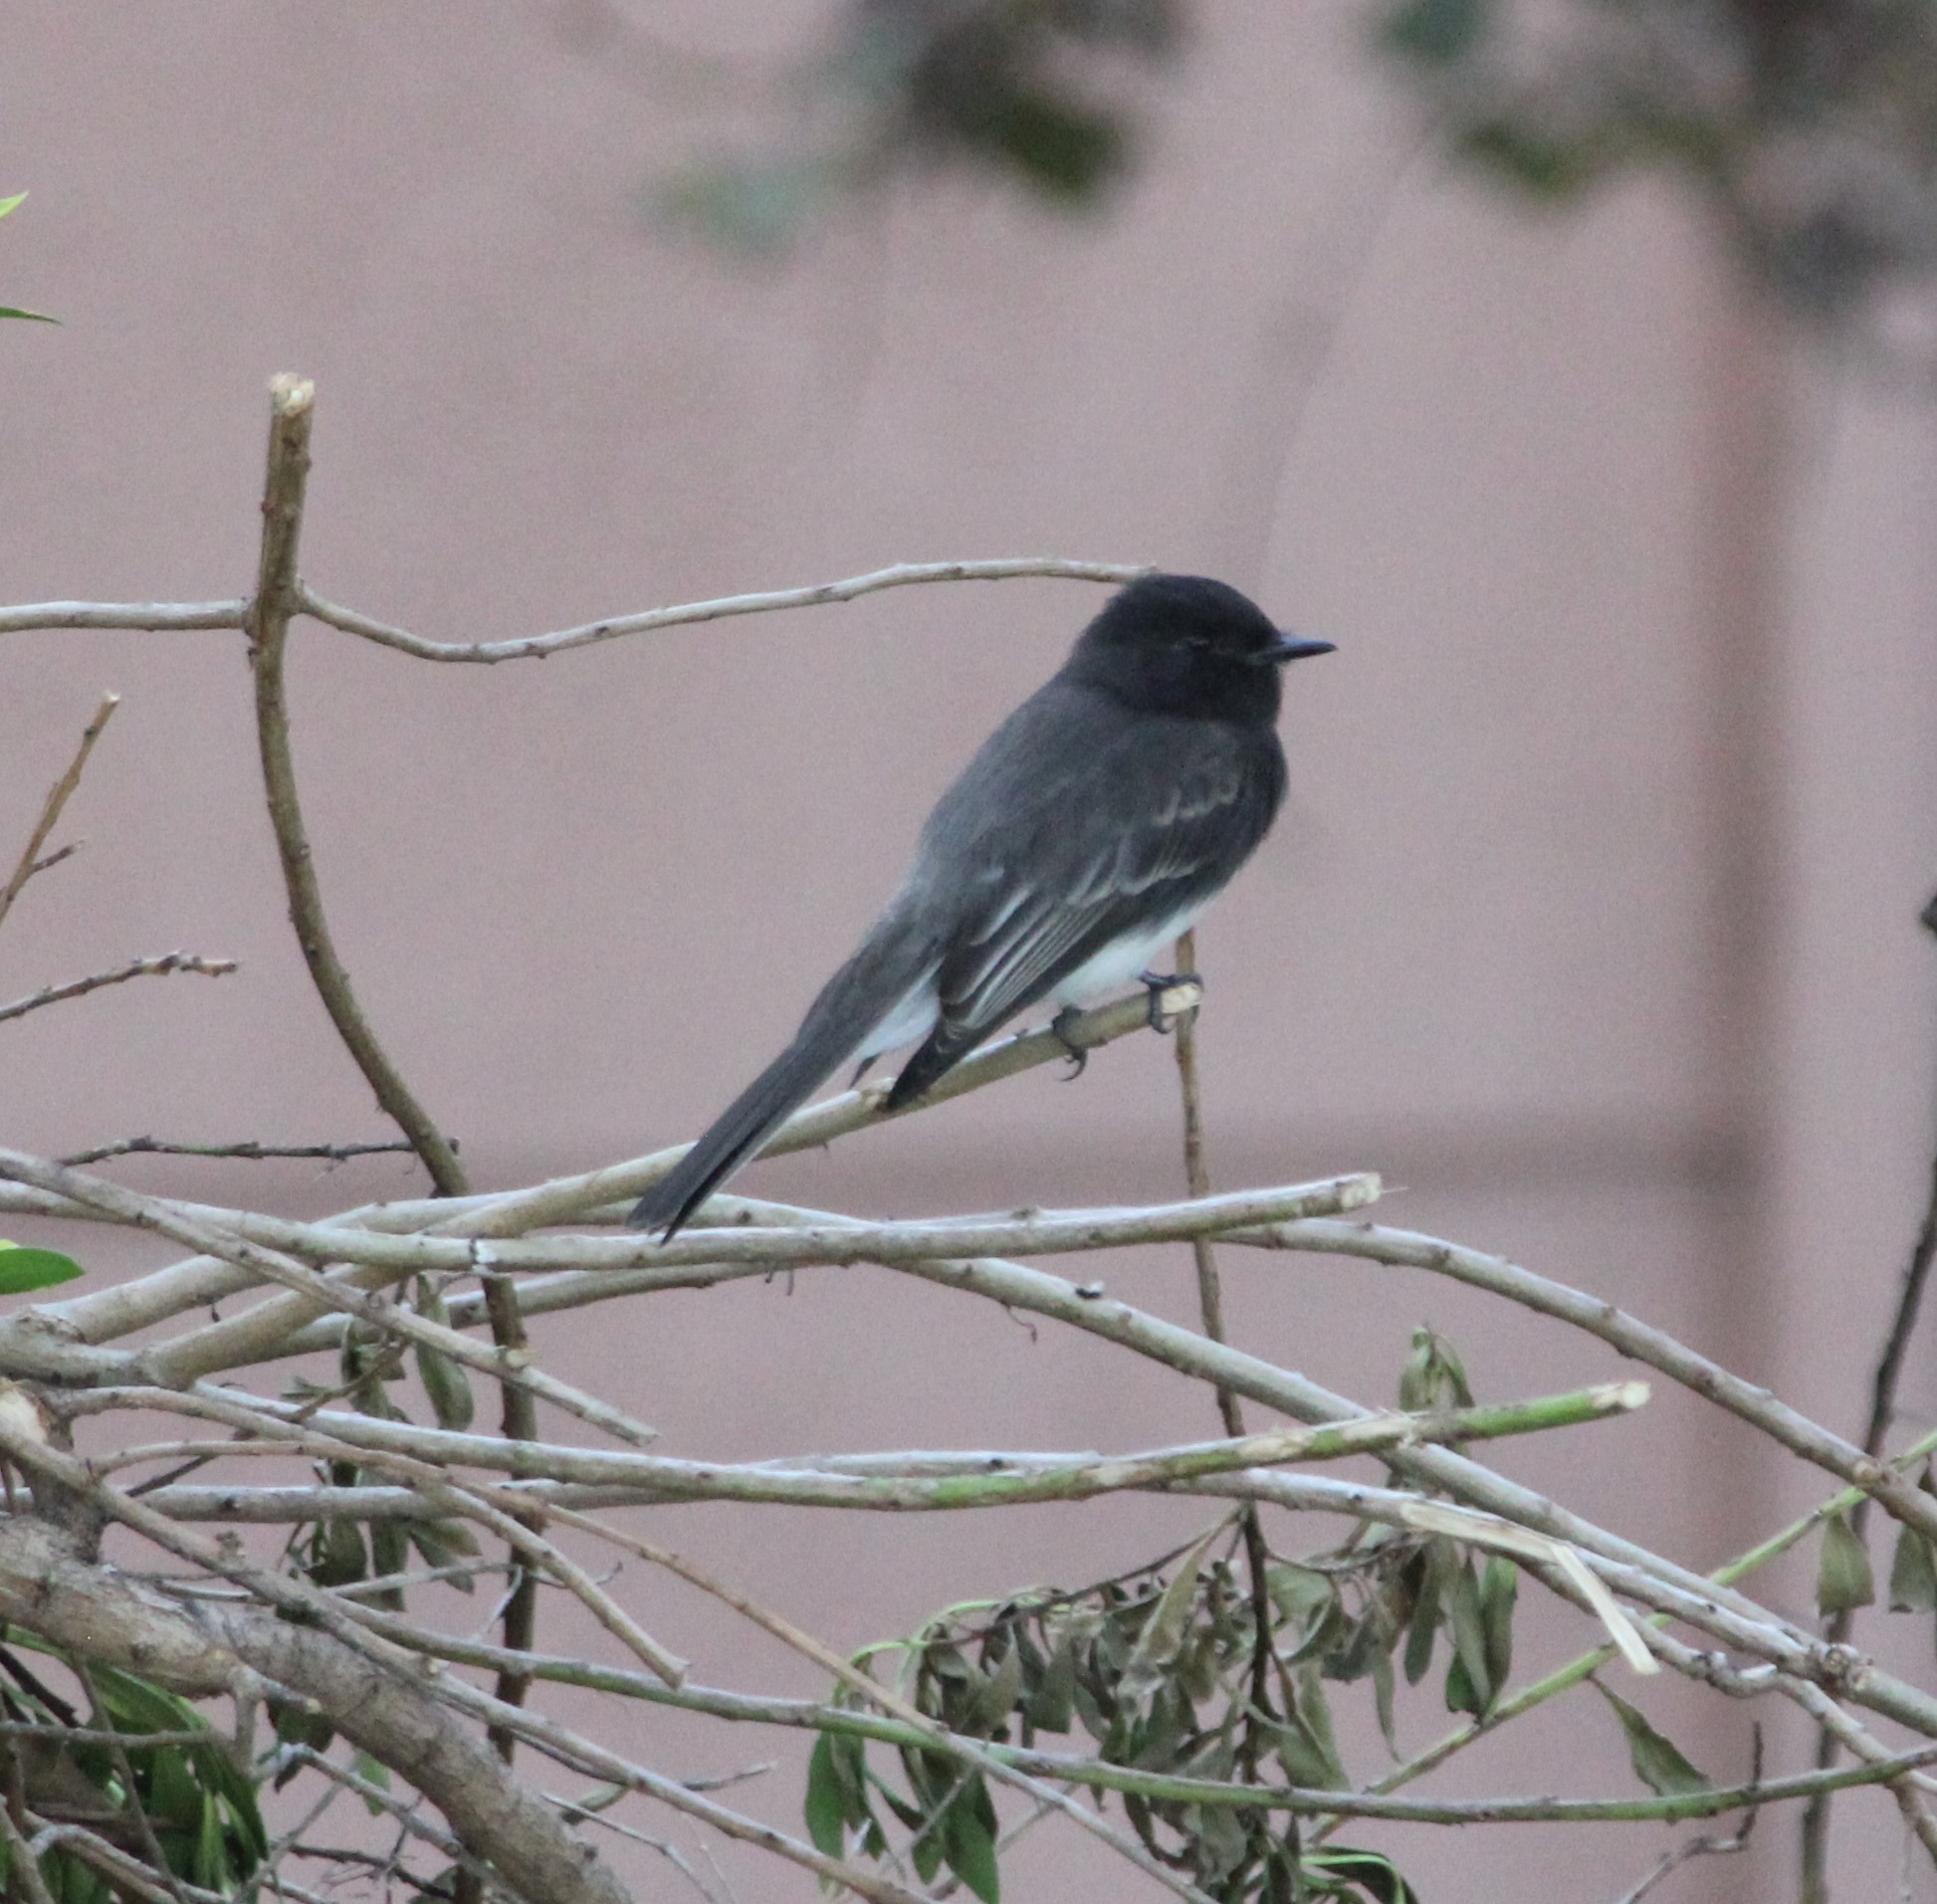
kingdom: Animalia
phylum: Chordata
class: Aves
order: Passeriformes
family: Tyrannidae
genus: Sayornis
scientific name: Sayornis nigricans
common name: Black phoebe
